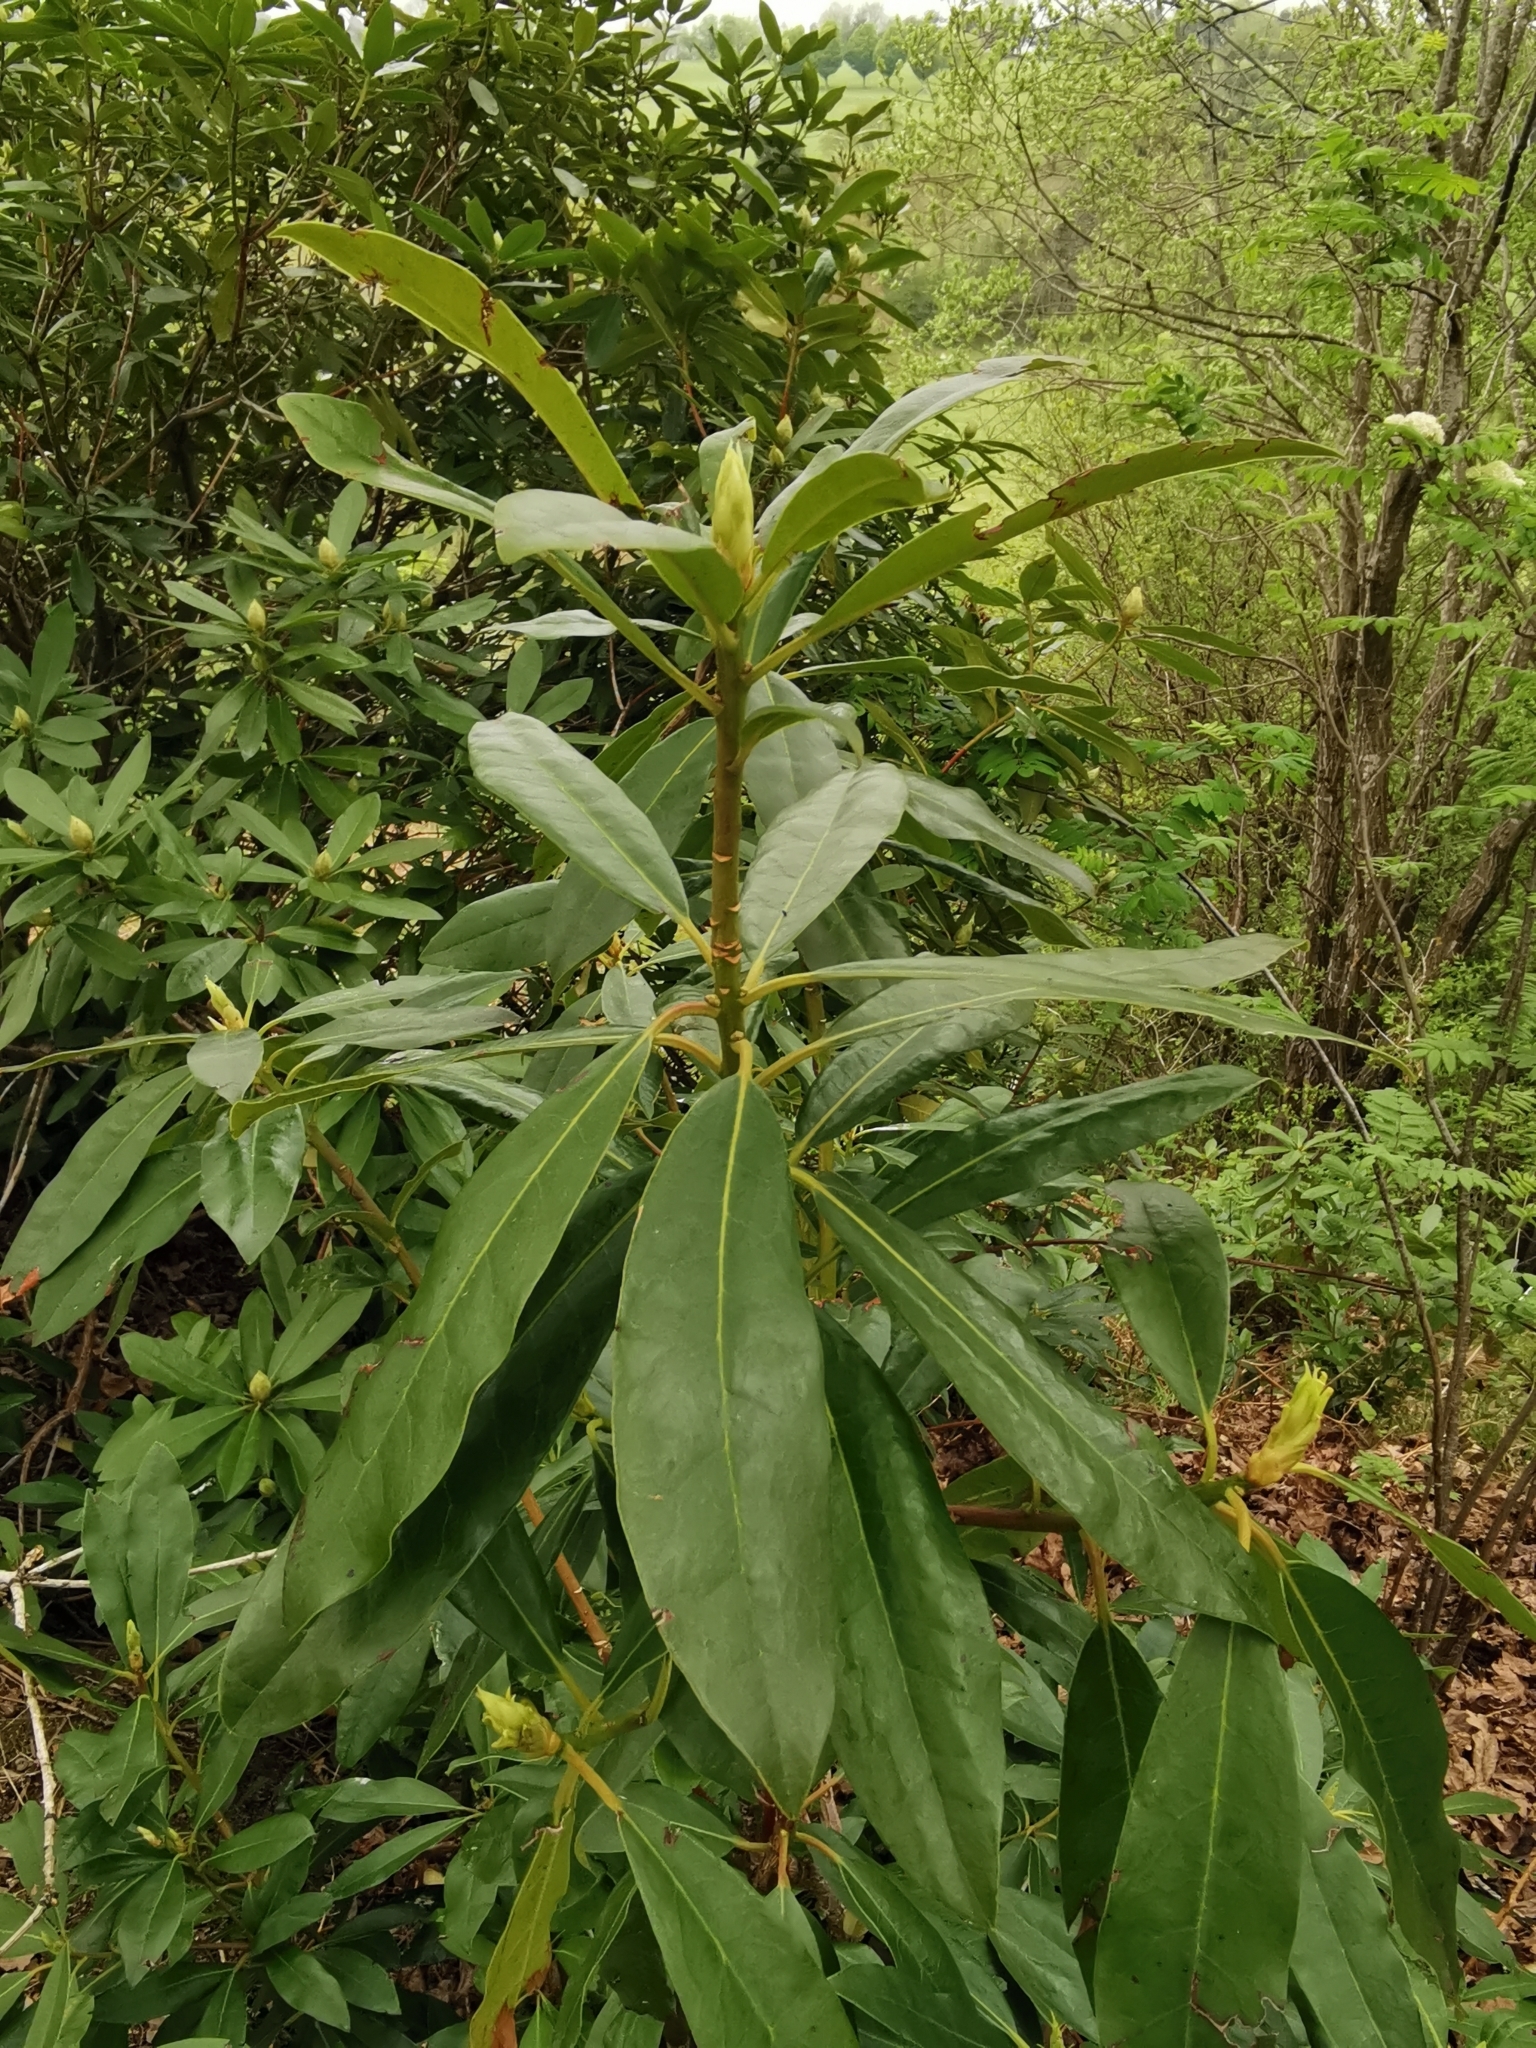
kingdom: Plantae
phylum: Tracheophyta
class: Magnoliopsida
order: Ericales
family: Ericaceae
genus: Rhododendron
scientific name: Rhododendron ponticum
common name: Rhododendron
